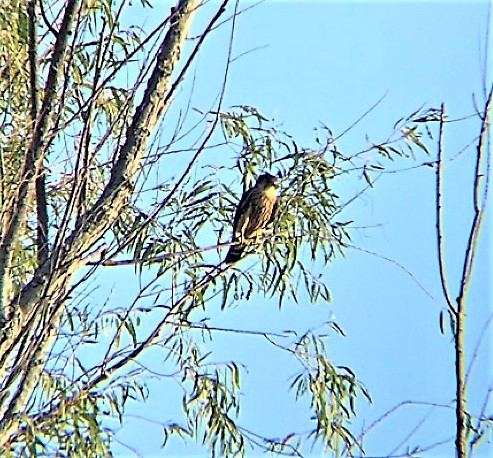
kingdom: Animalia
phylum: Chordata
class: Aves
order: Falconiformes
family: Falconidae
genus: Falco
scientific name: Falco columbarius
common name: Merlin
